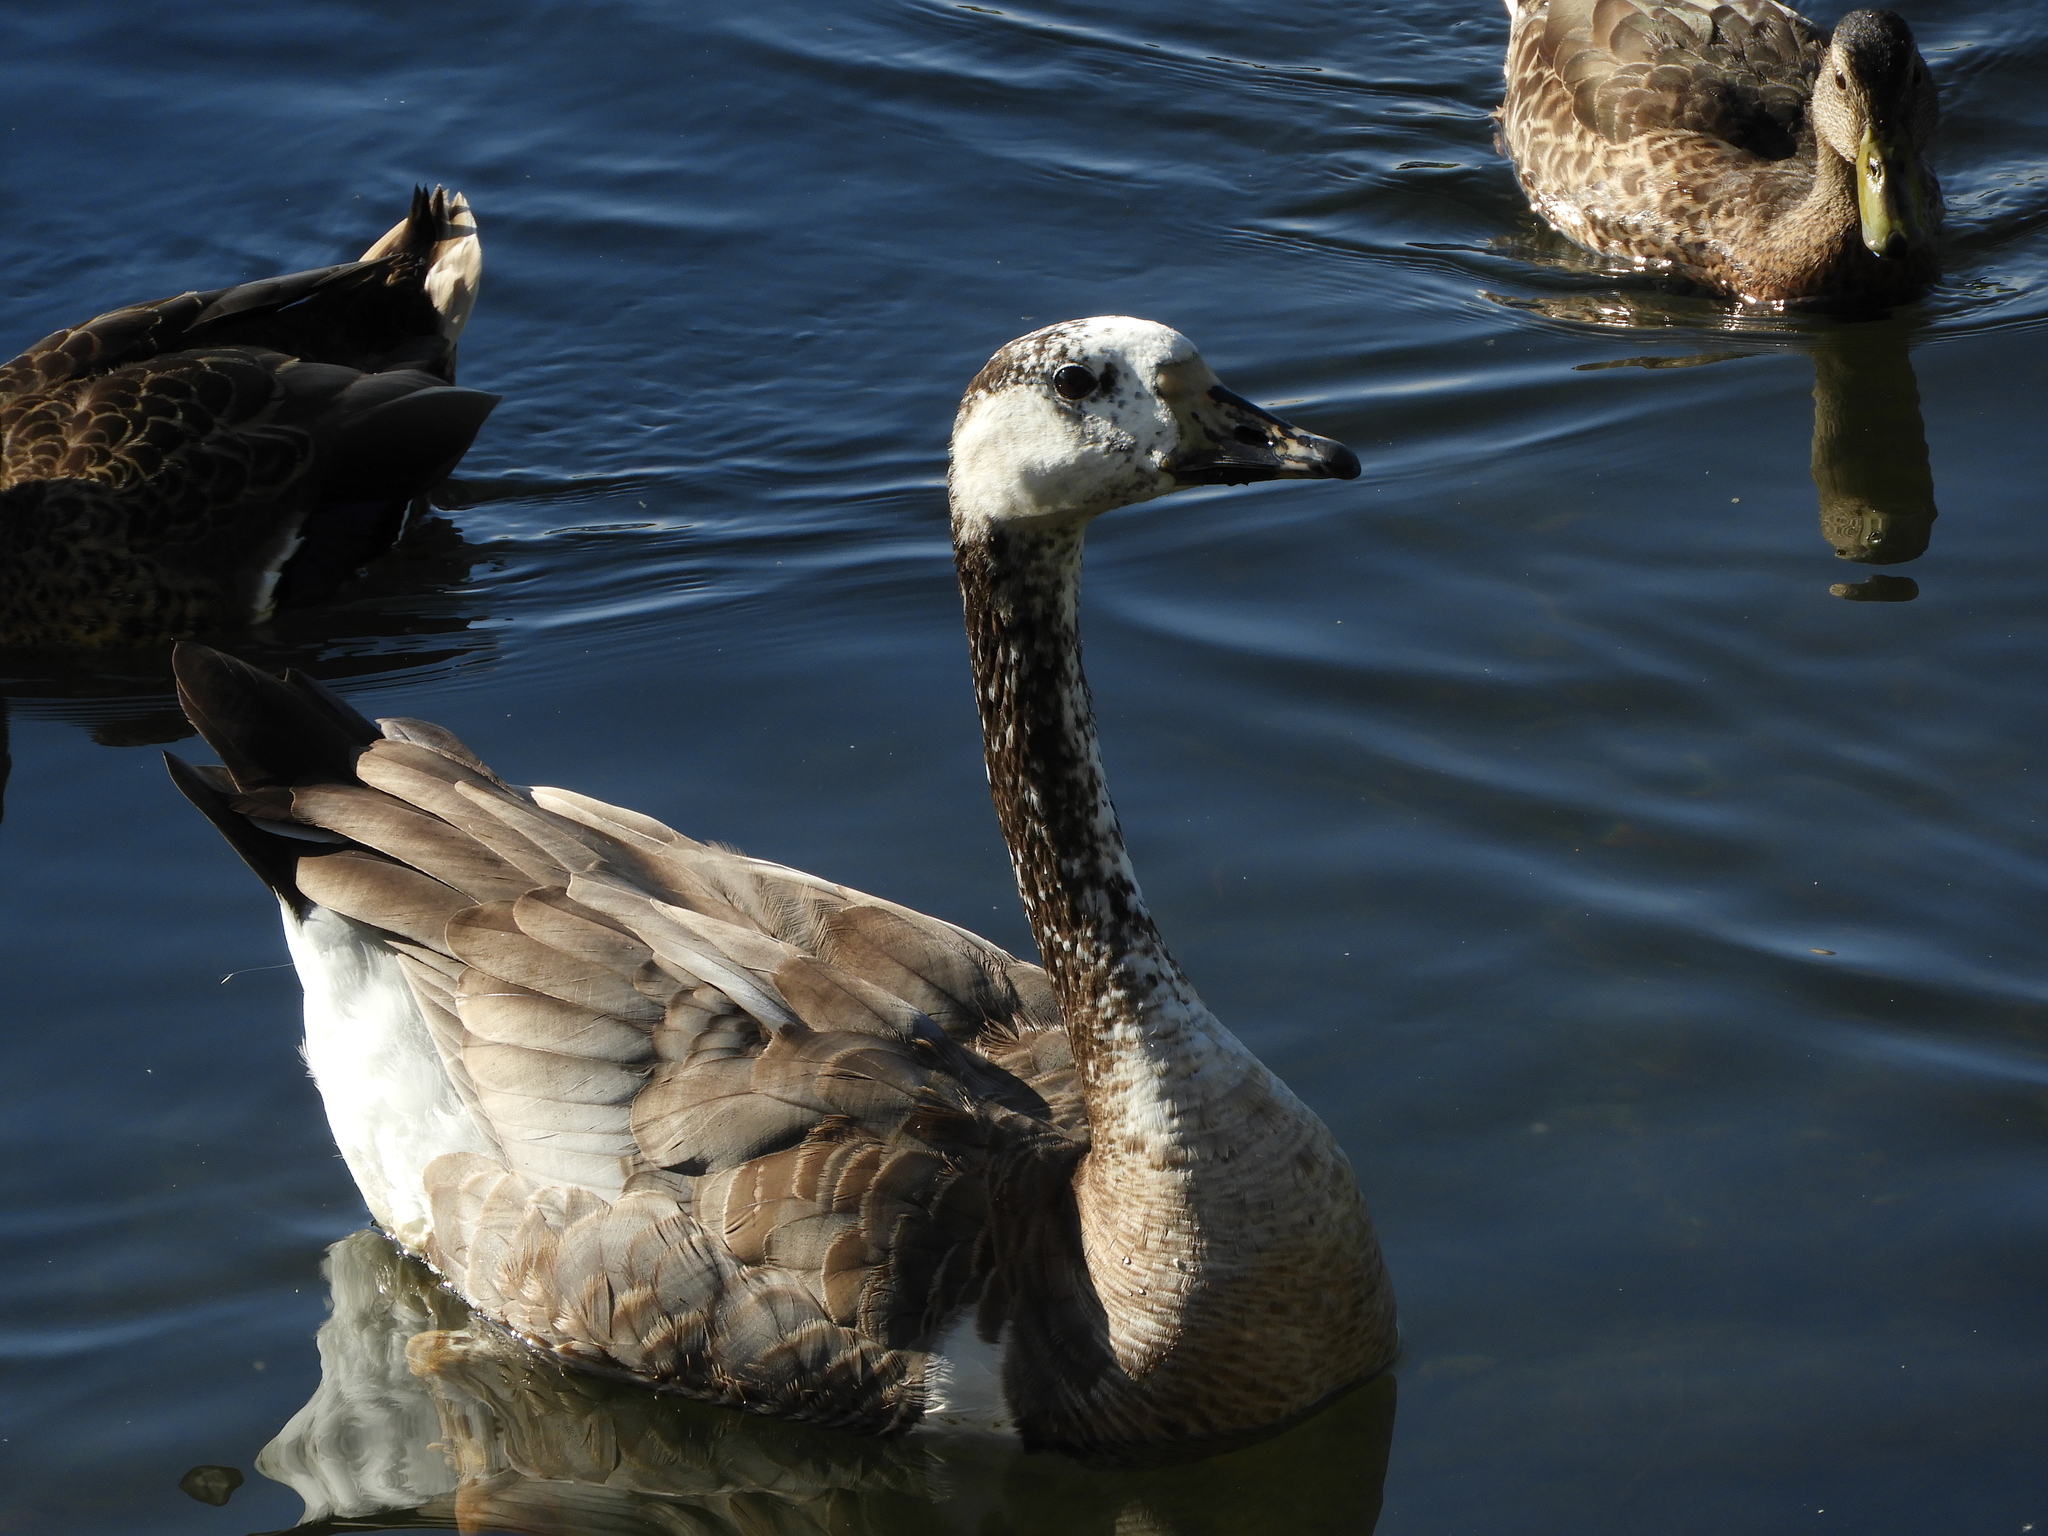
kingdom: Animalia
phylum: Chordata
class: Aves
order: Anseriformes
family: Anatidae
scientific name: Anatidae
